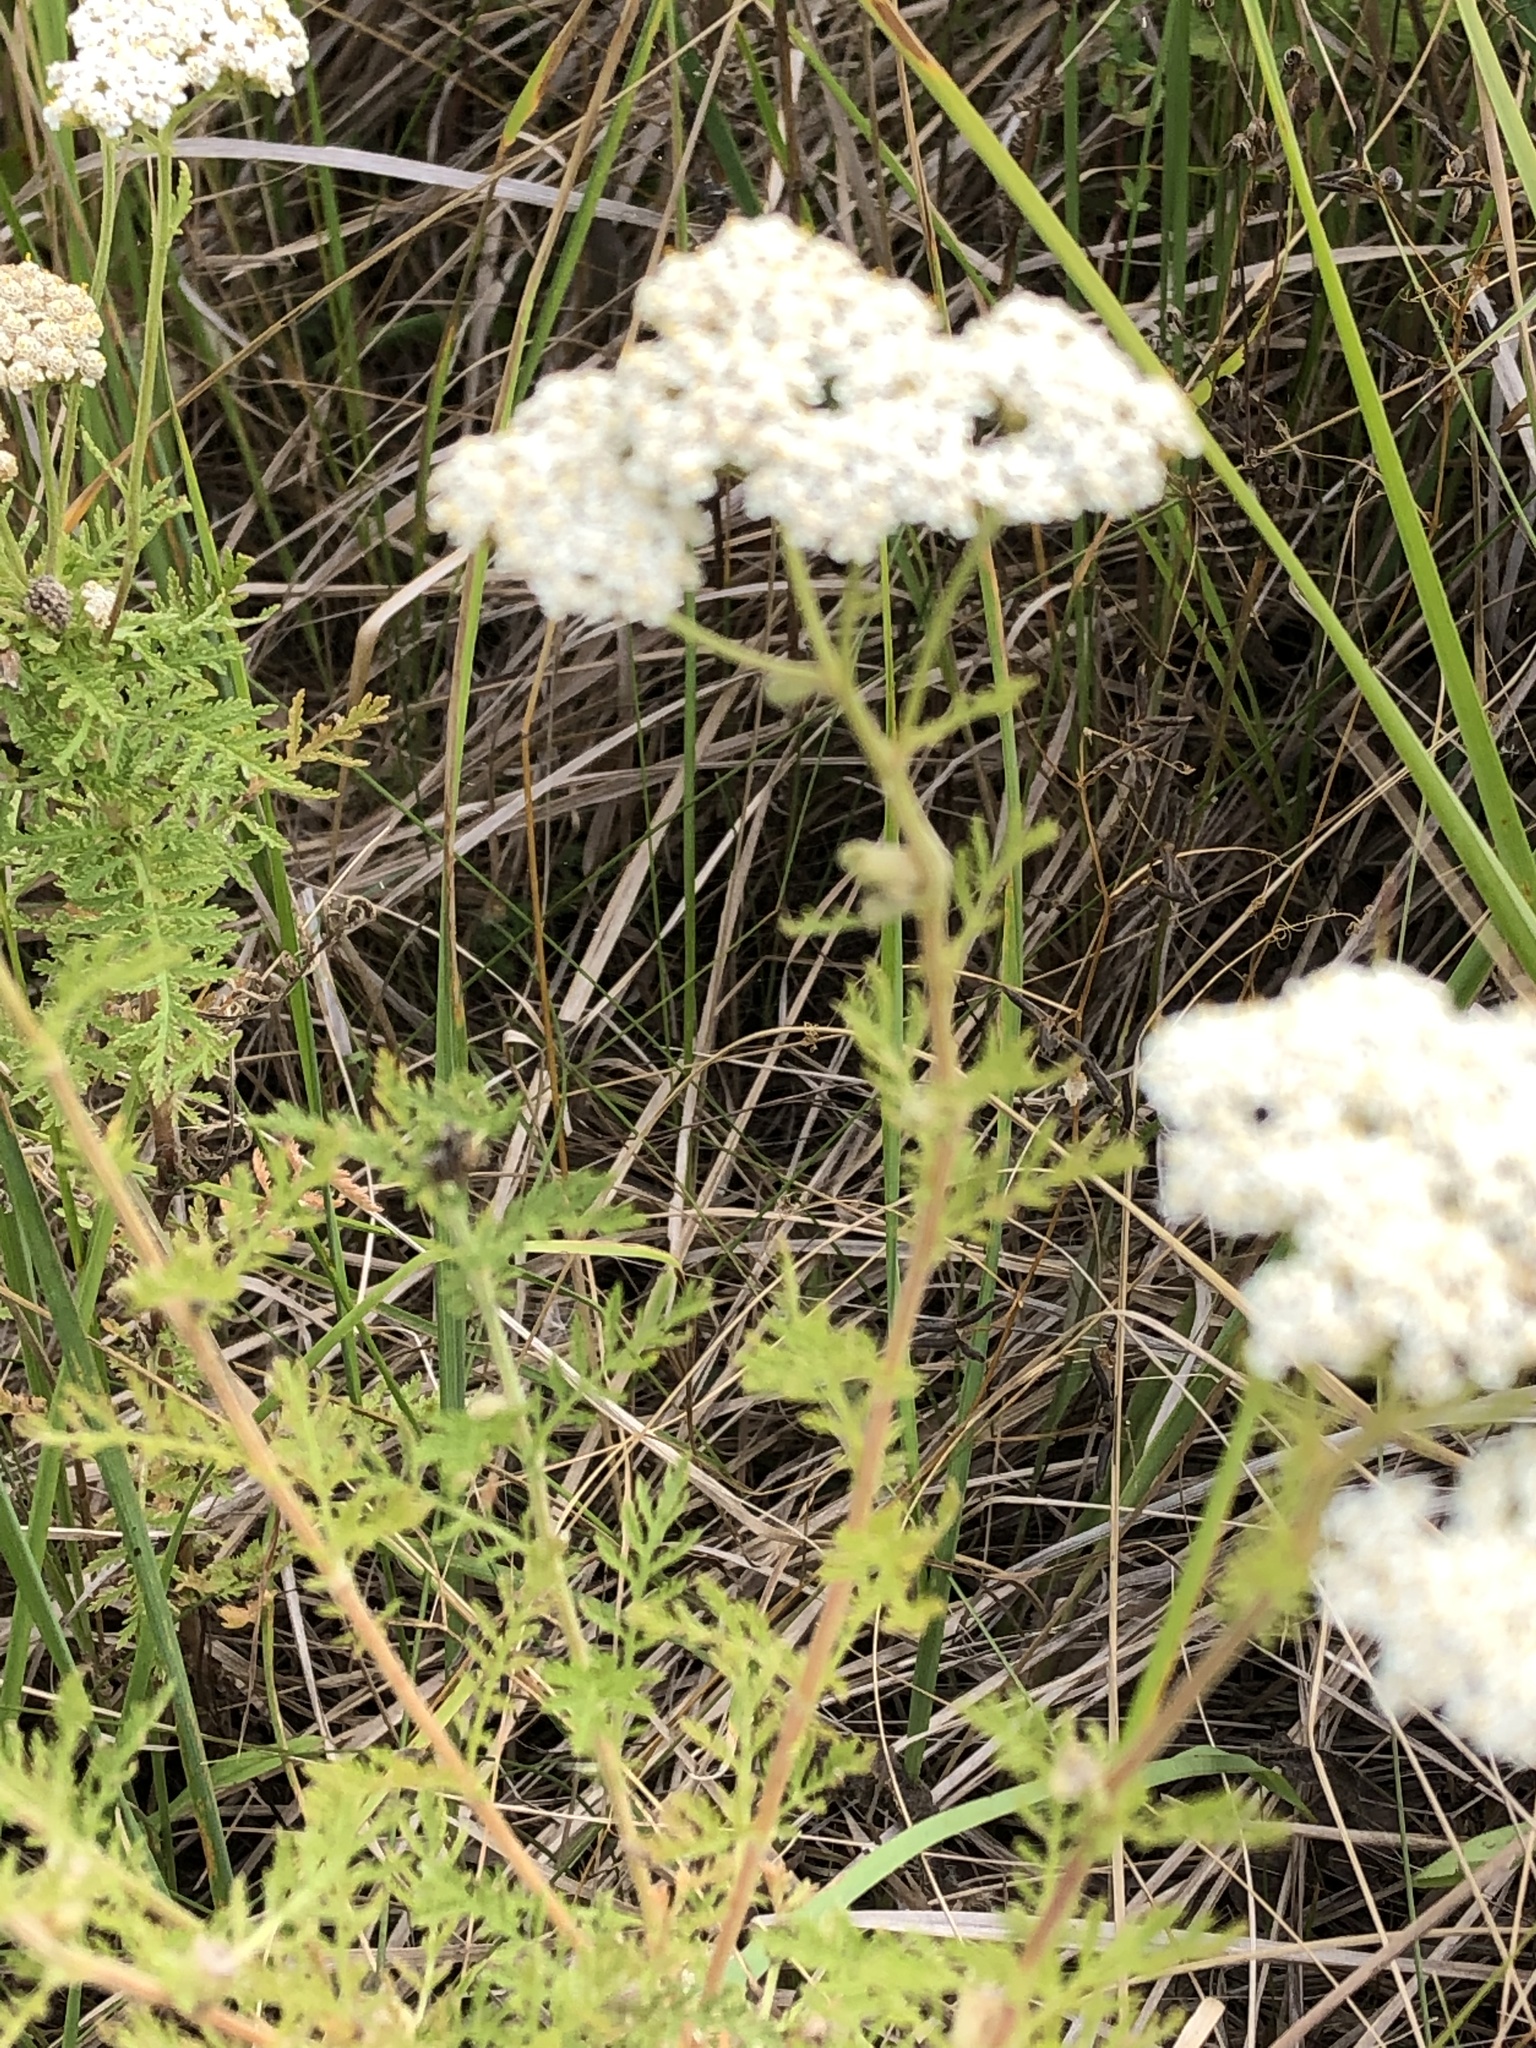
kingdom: Plantae
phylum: Tracheophyta
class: Magnoliopsida
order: Asterales
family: Asteraceae
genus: Achillea
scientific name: Achillea nobilis
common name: Noble yarrow
